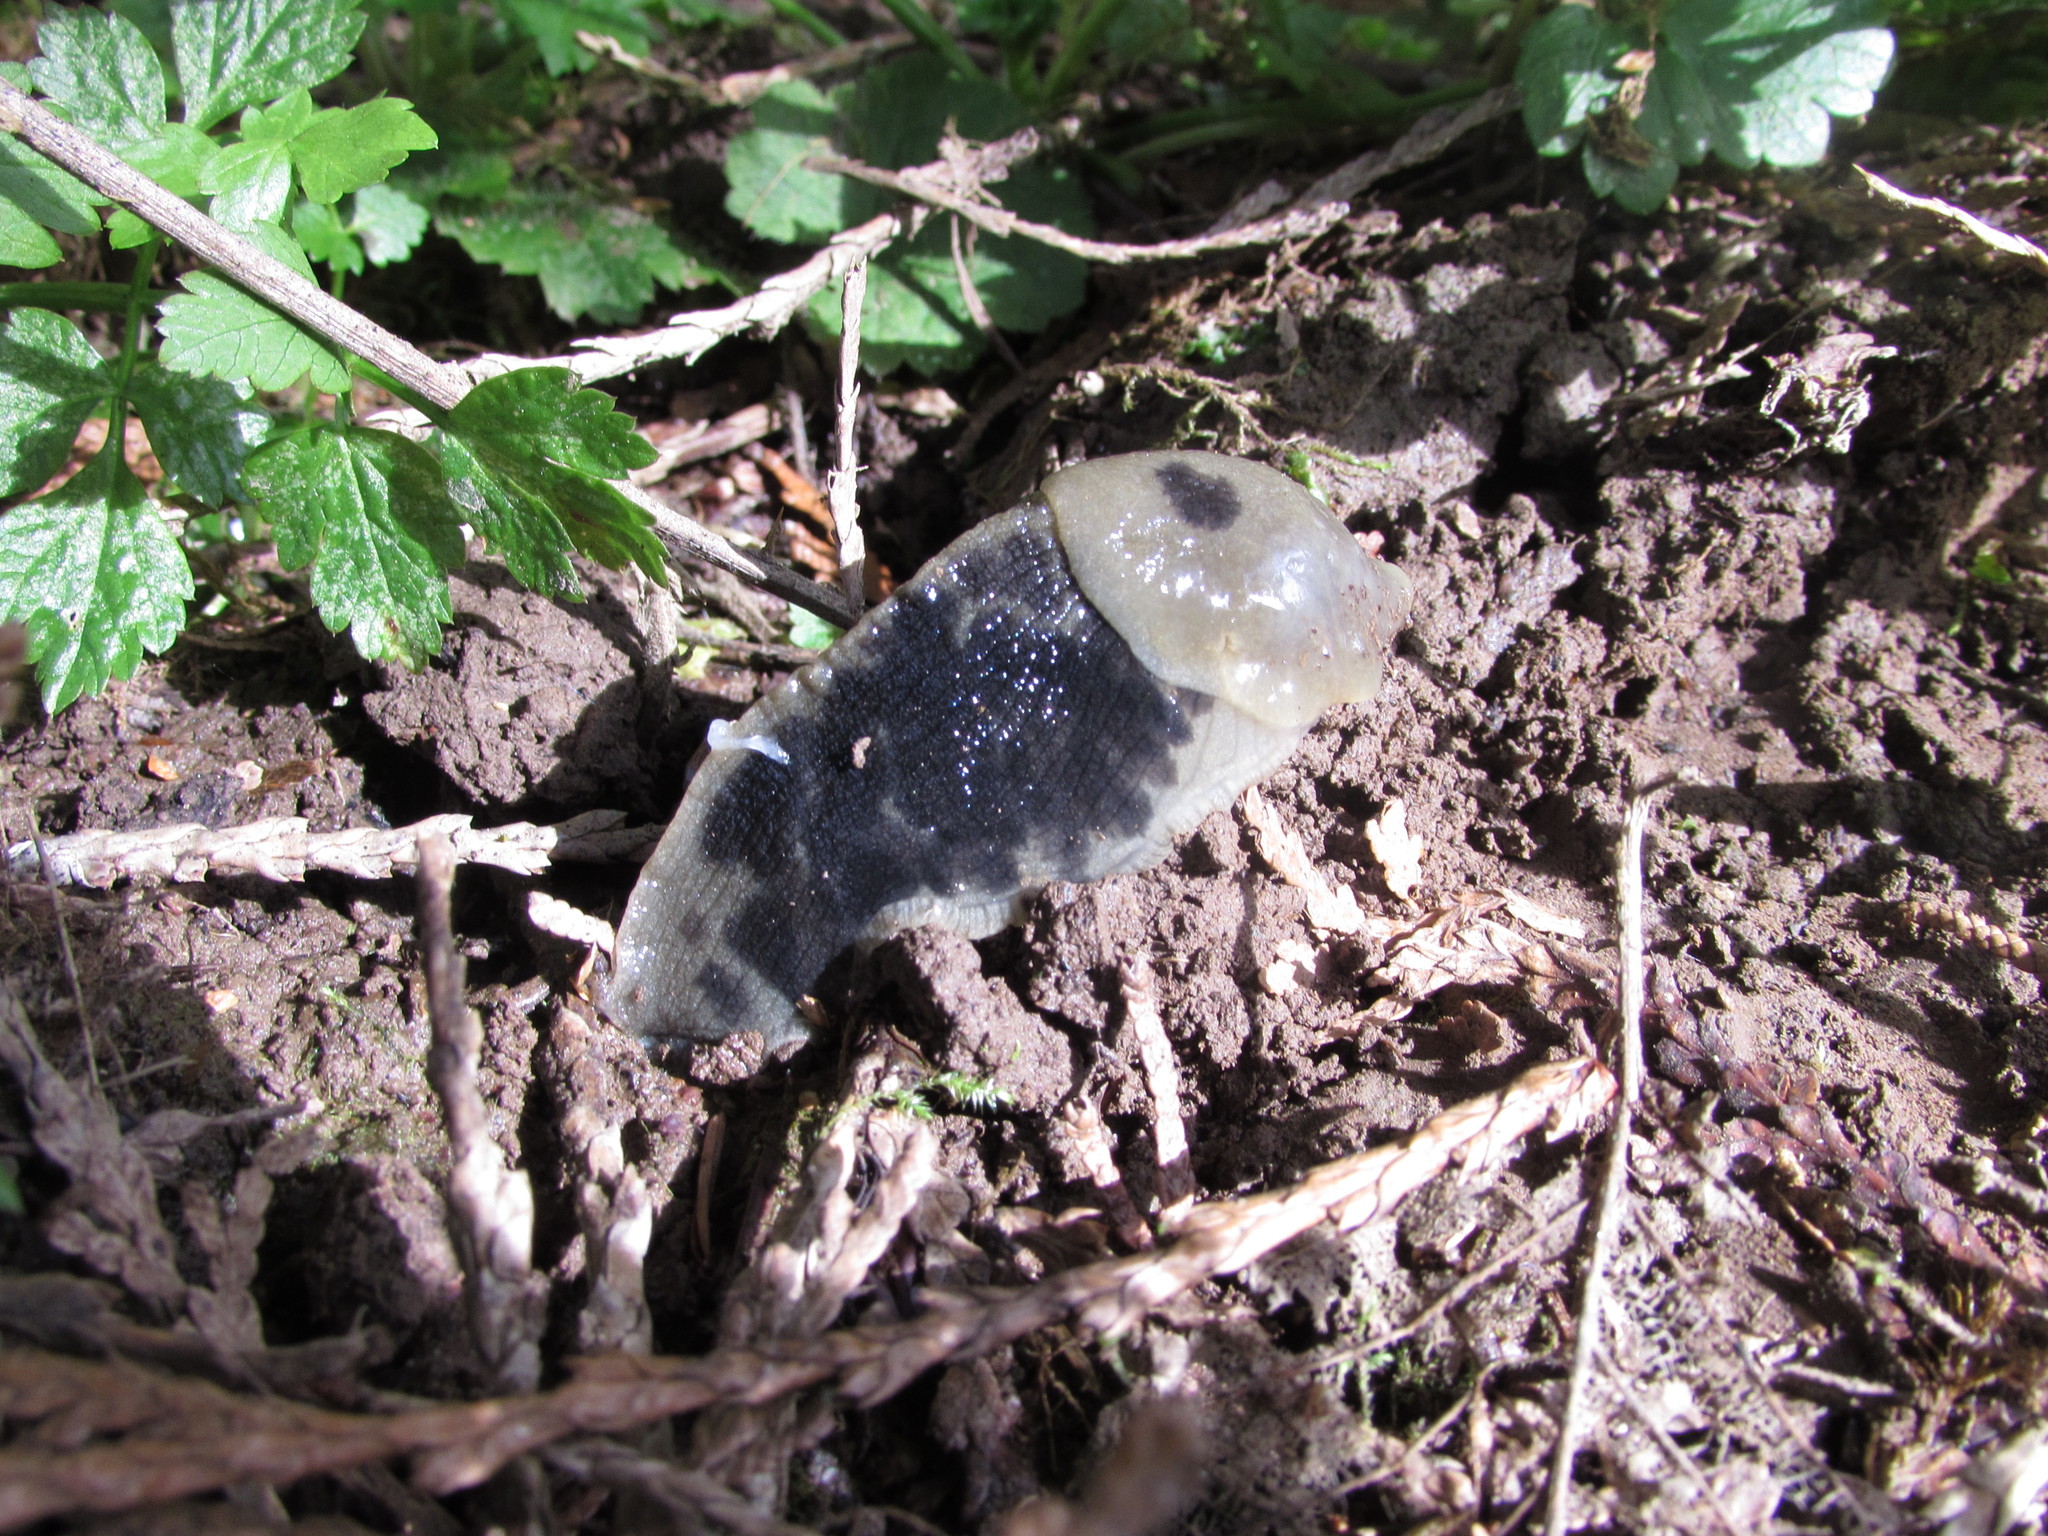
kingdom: Animalia
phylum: Mollusca
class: Gastropoda
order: Stylommatophora
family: Ariolimacidae
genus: Ariolimax
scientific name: Ariolimax columbianus
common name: Pacific banana slug
